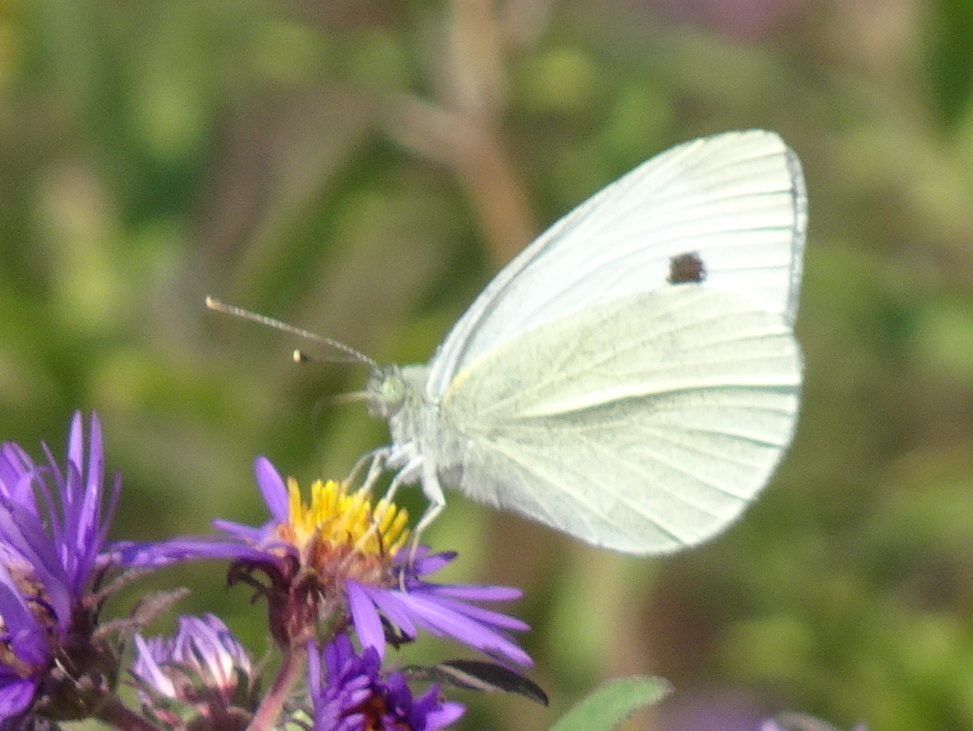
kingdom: Animalia
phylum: Arthropoda
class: Insecta
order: Lepidoptera
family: Pieridae
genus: Pieris
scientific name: Pieris rapae
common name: Small white
